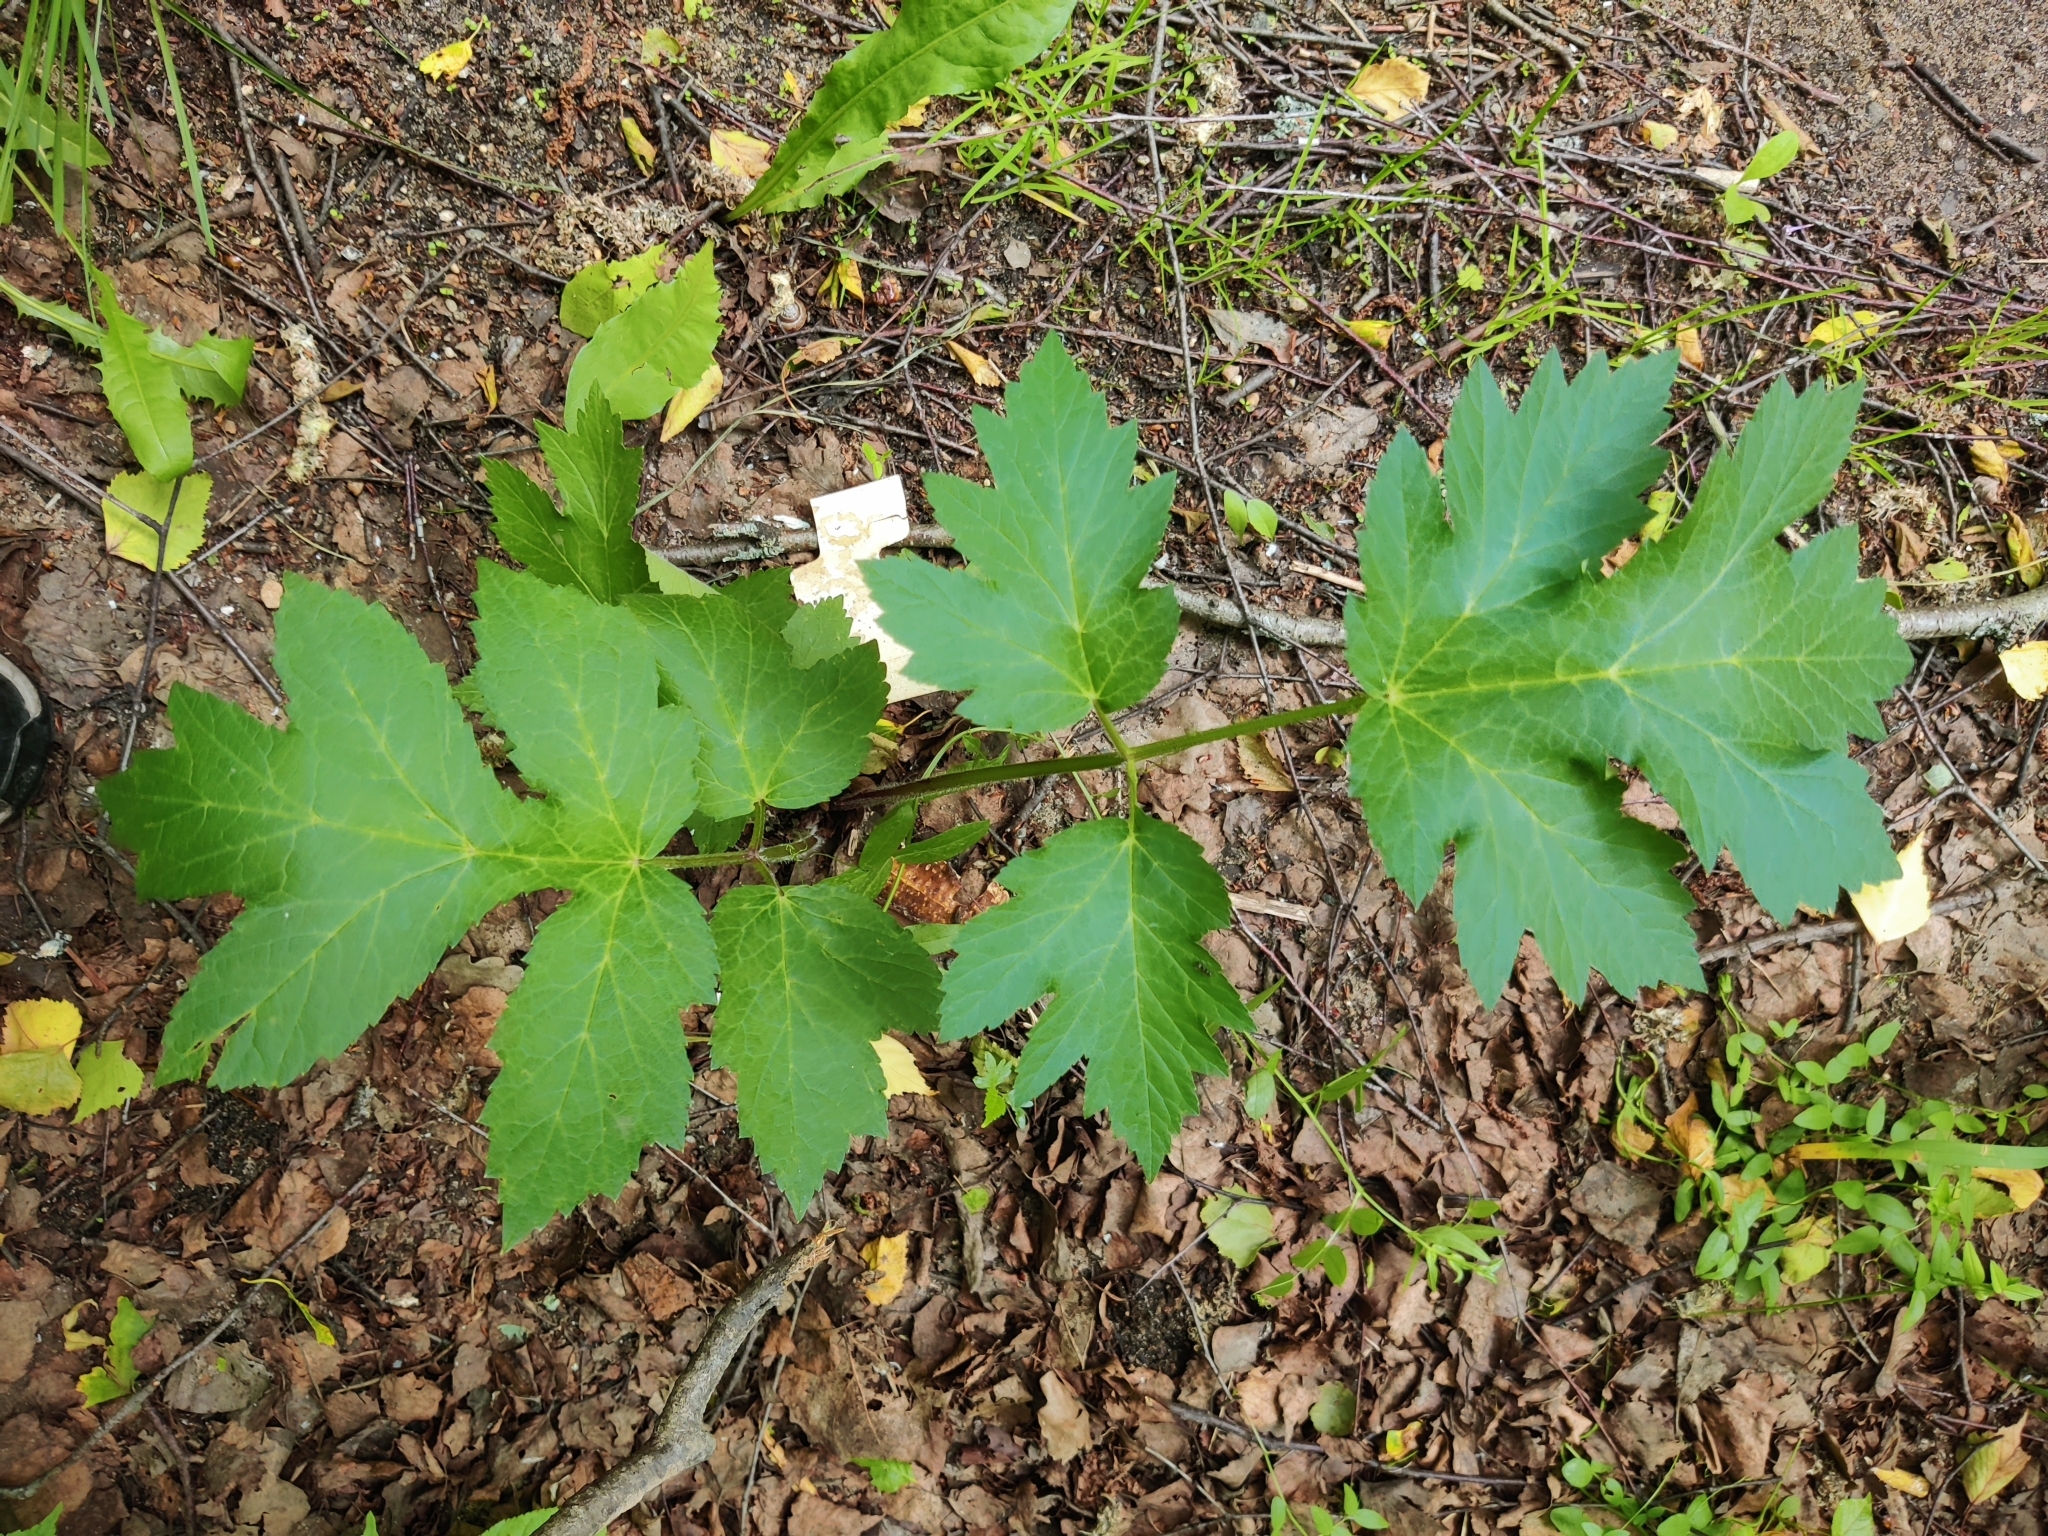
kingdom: Plantae
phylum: Tracheophyta
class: Magnoliopsida
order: Apiales
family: Apiaceae
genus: Heracleum
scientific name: Heracleum sphondylium
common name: Hogweed
